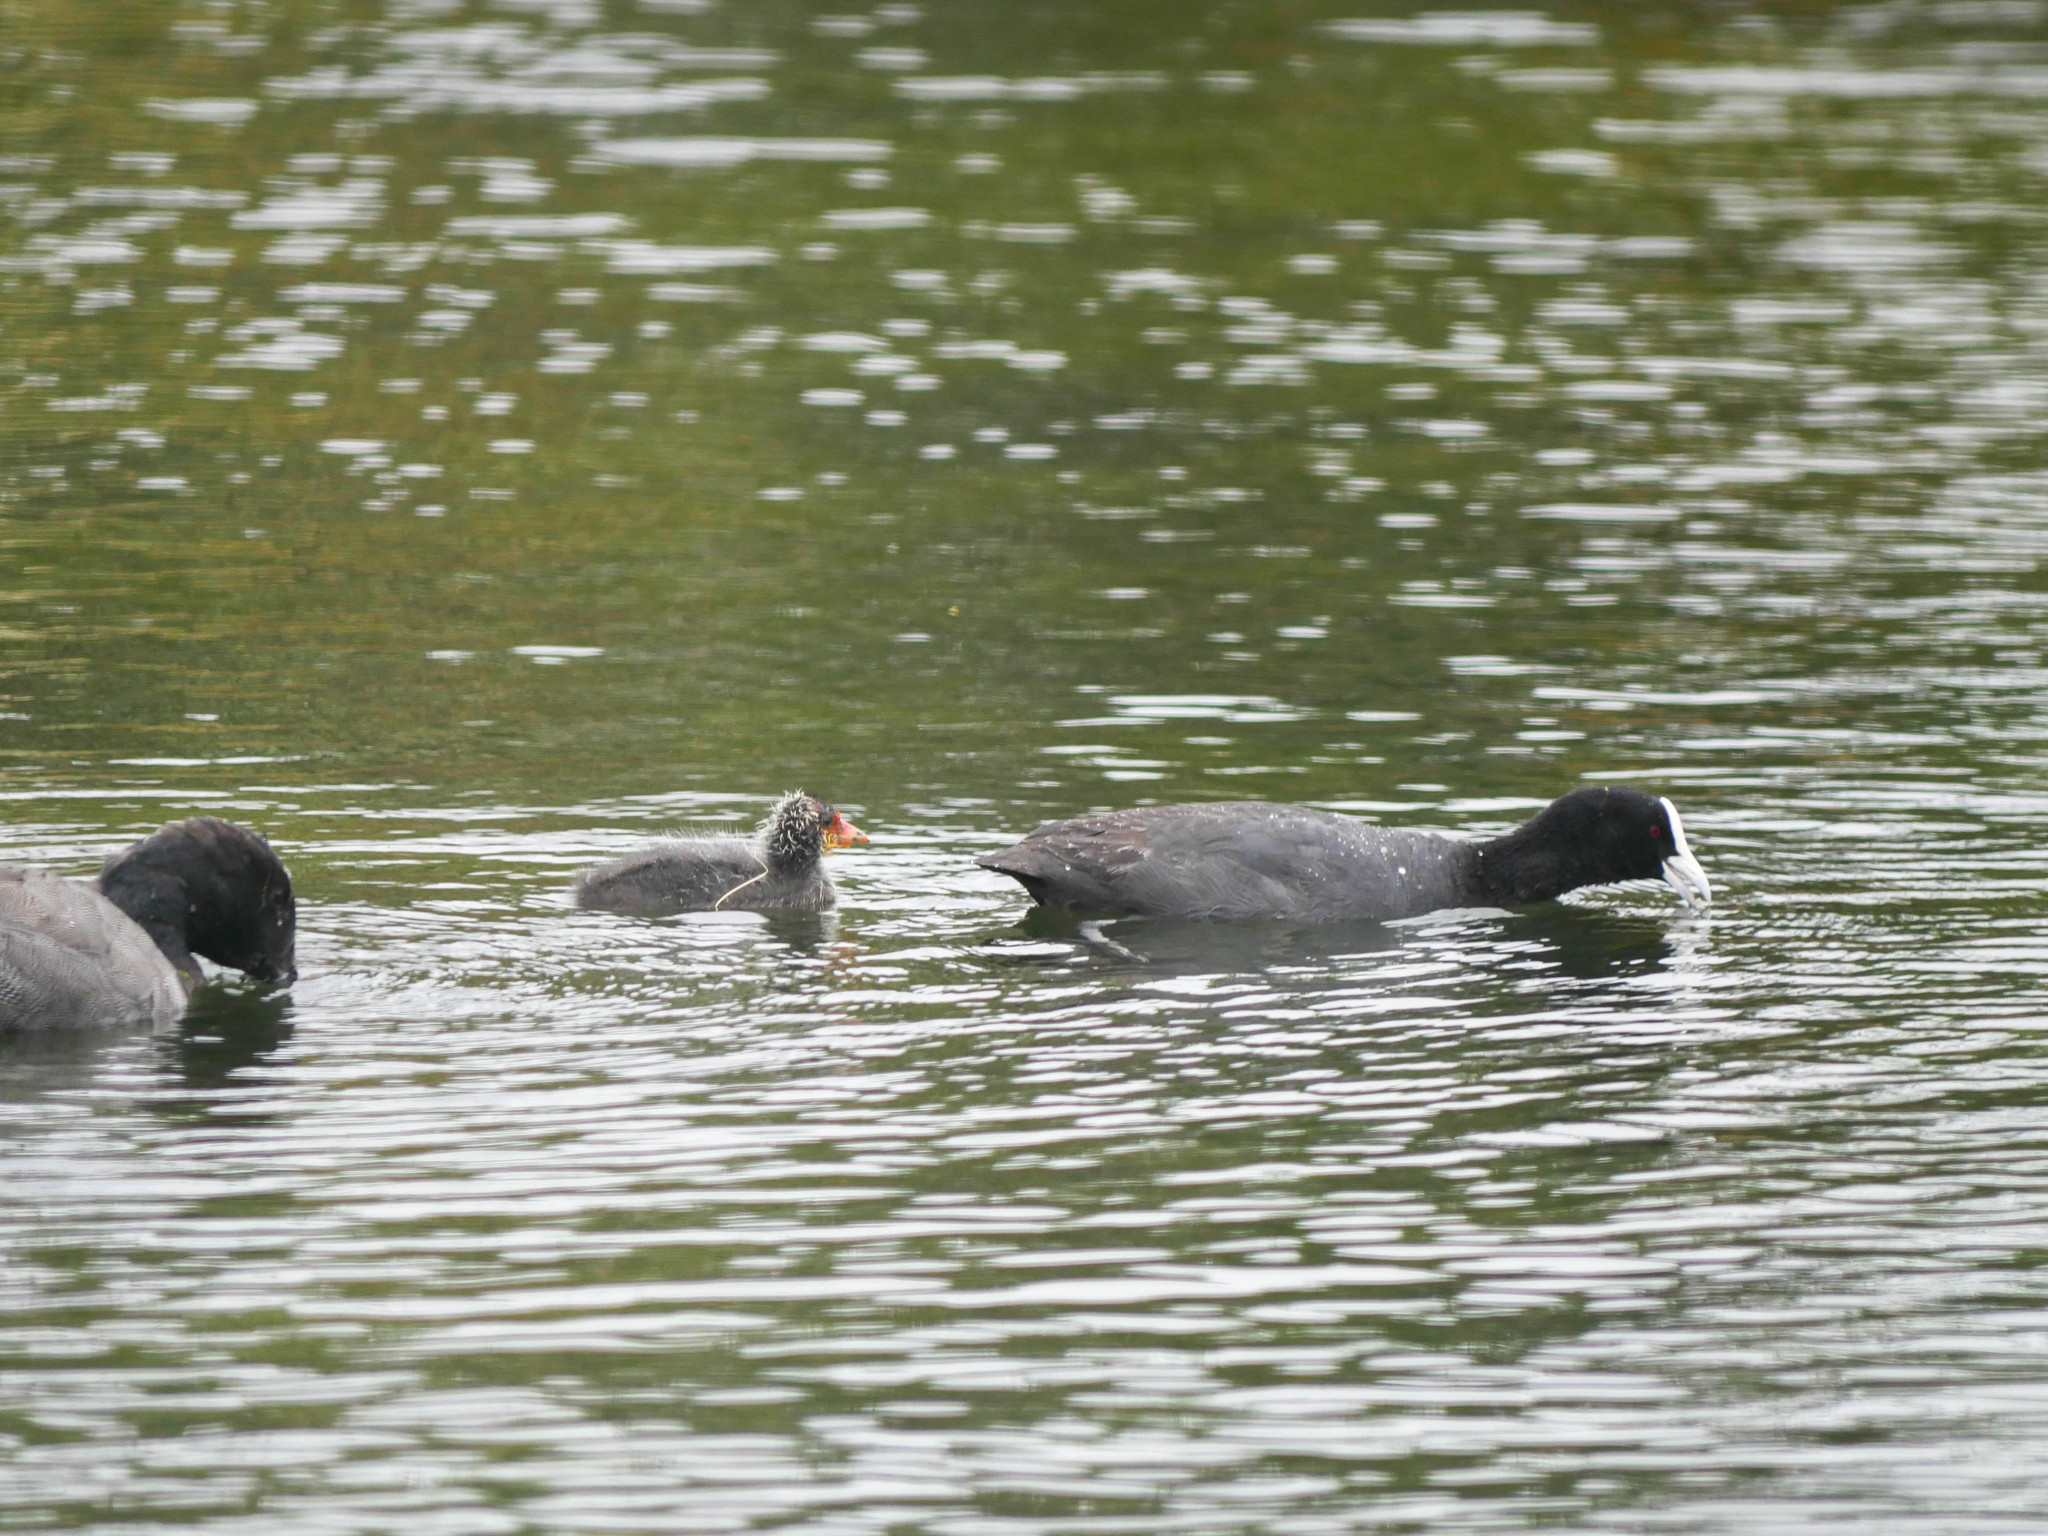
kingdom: Animalia
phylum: Chordata
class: Aves
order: Gruiformes
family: Rallidae
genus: Fulica
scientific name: Fulica atra
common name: Eurasian coot
